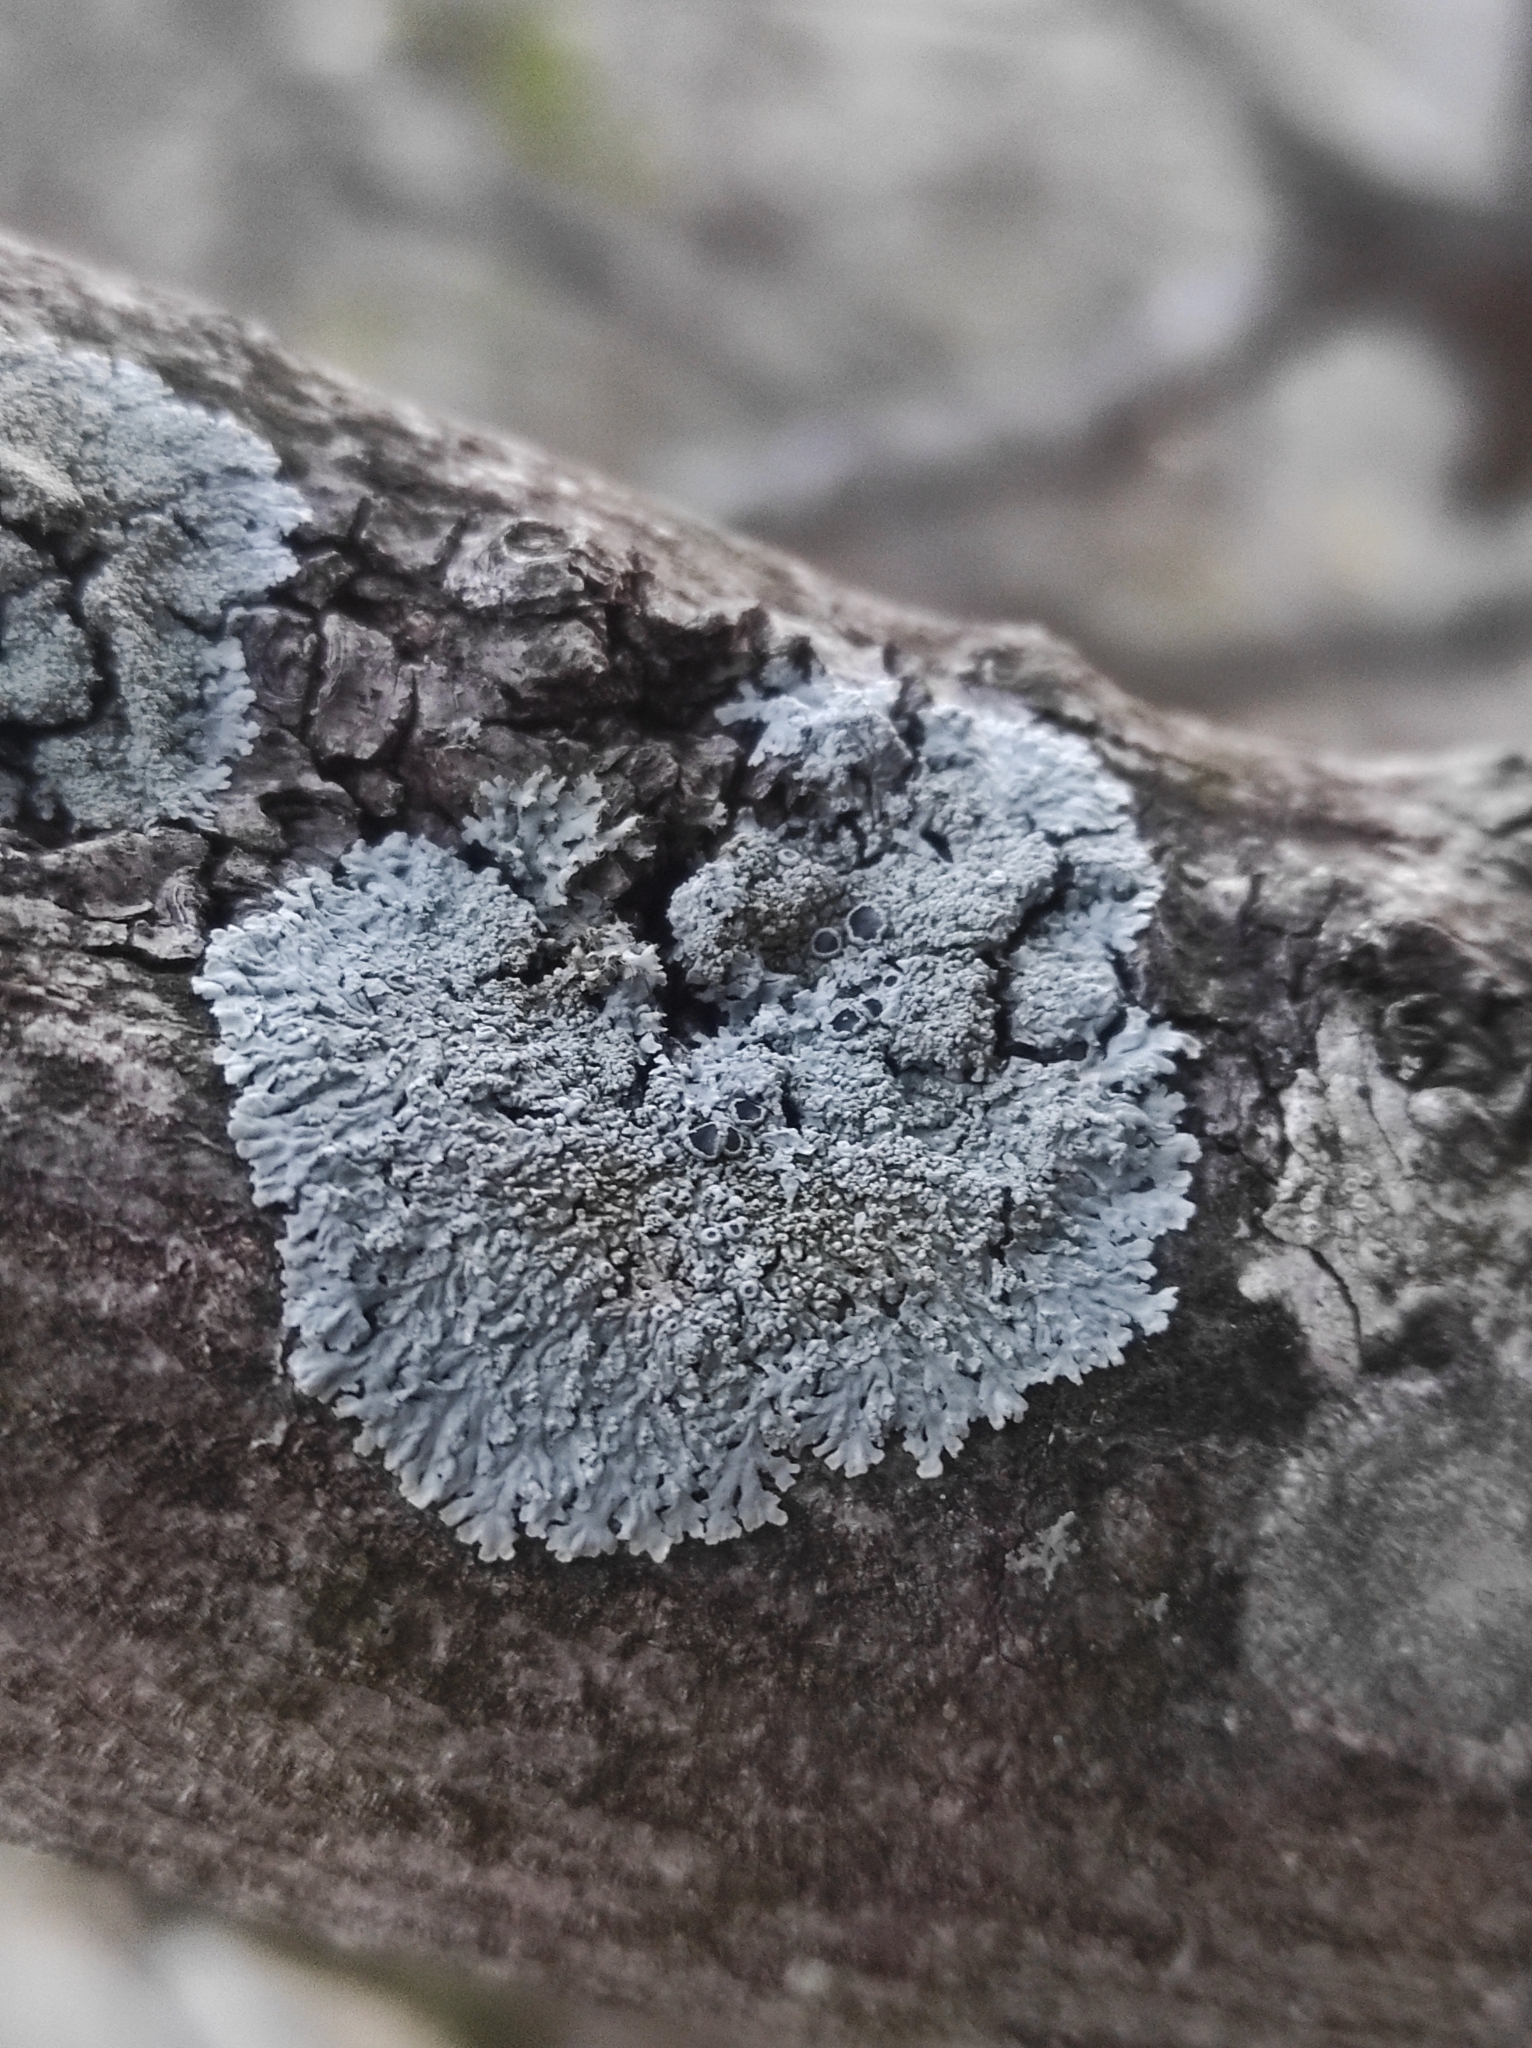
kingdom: Fungi
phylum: Ascomycota
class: Lecanoromycetes
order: Caliciales
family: Physciaceae
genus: Physcia
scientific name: Physcia clementei
